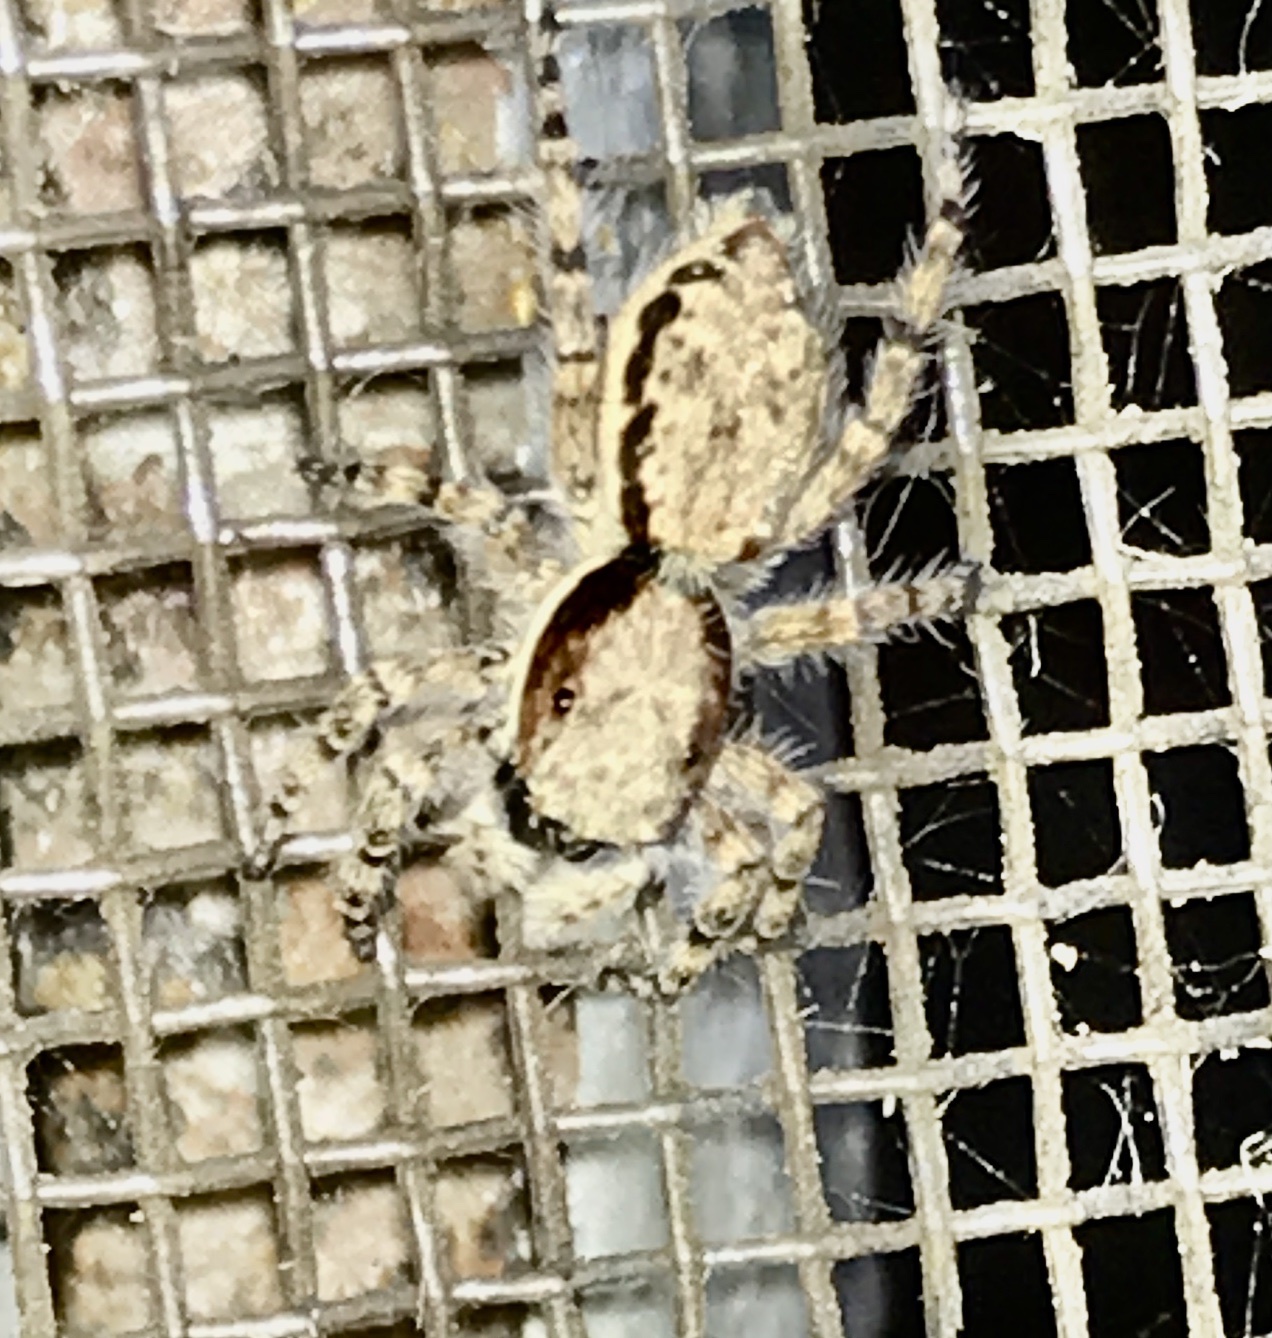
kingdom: Animalia
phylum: Arthropoda
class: Arachnida
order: Araneae
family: Salticidae
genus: Menemerus
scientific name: Menemerus bivittatus
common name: Gray wall jumper
